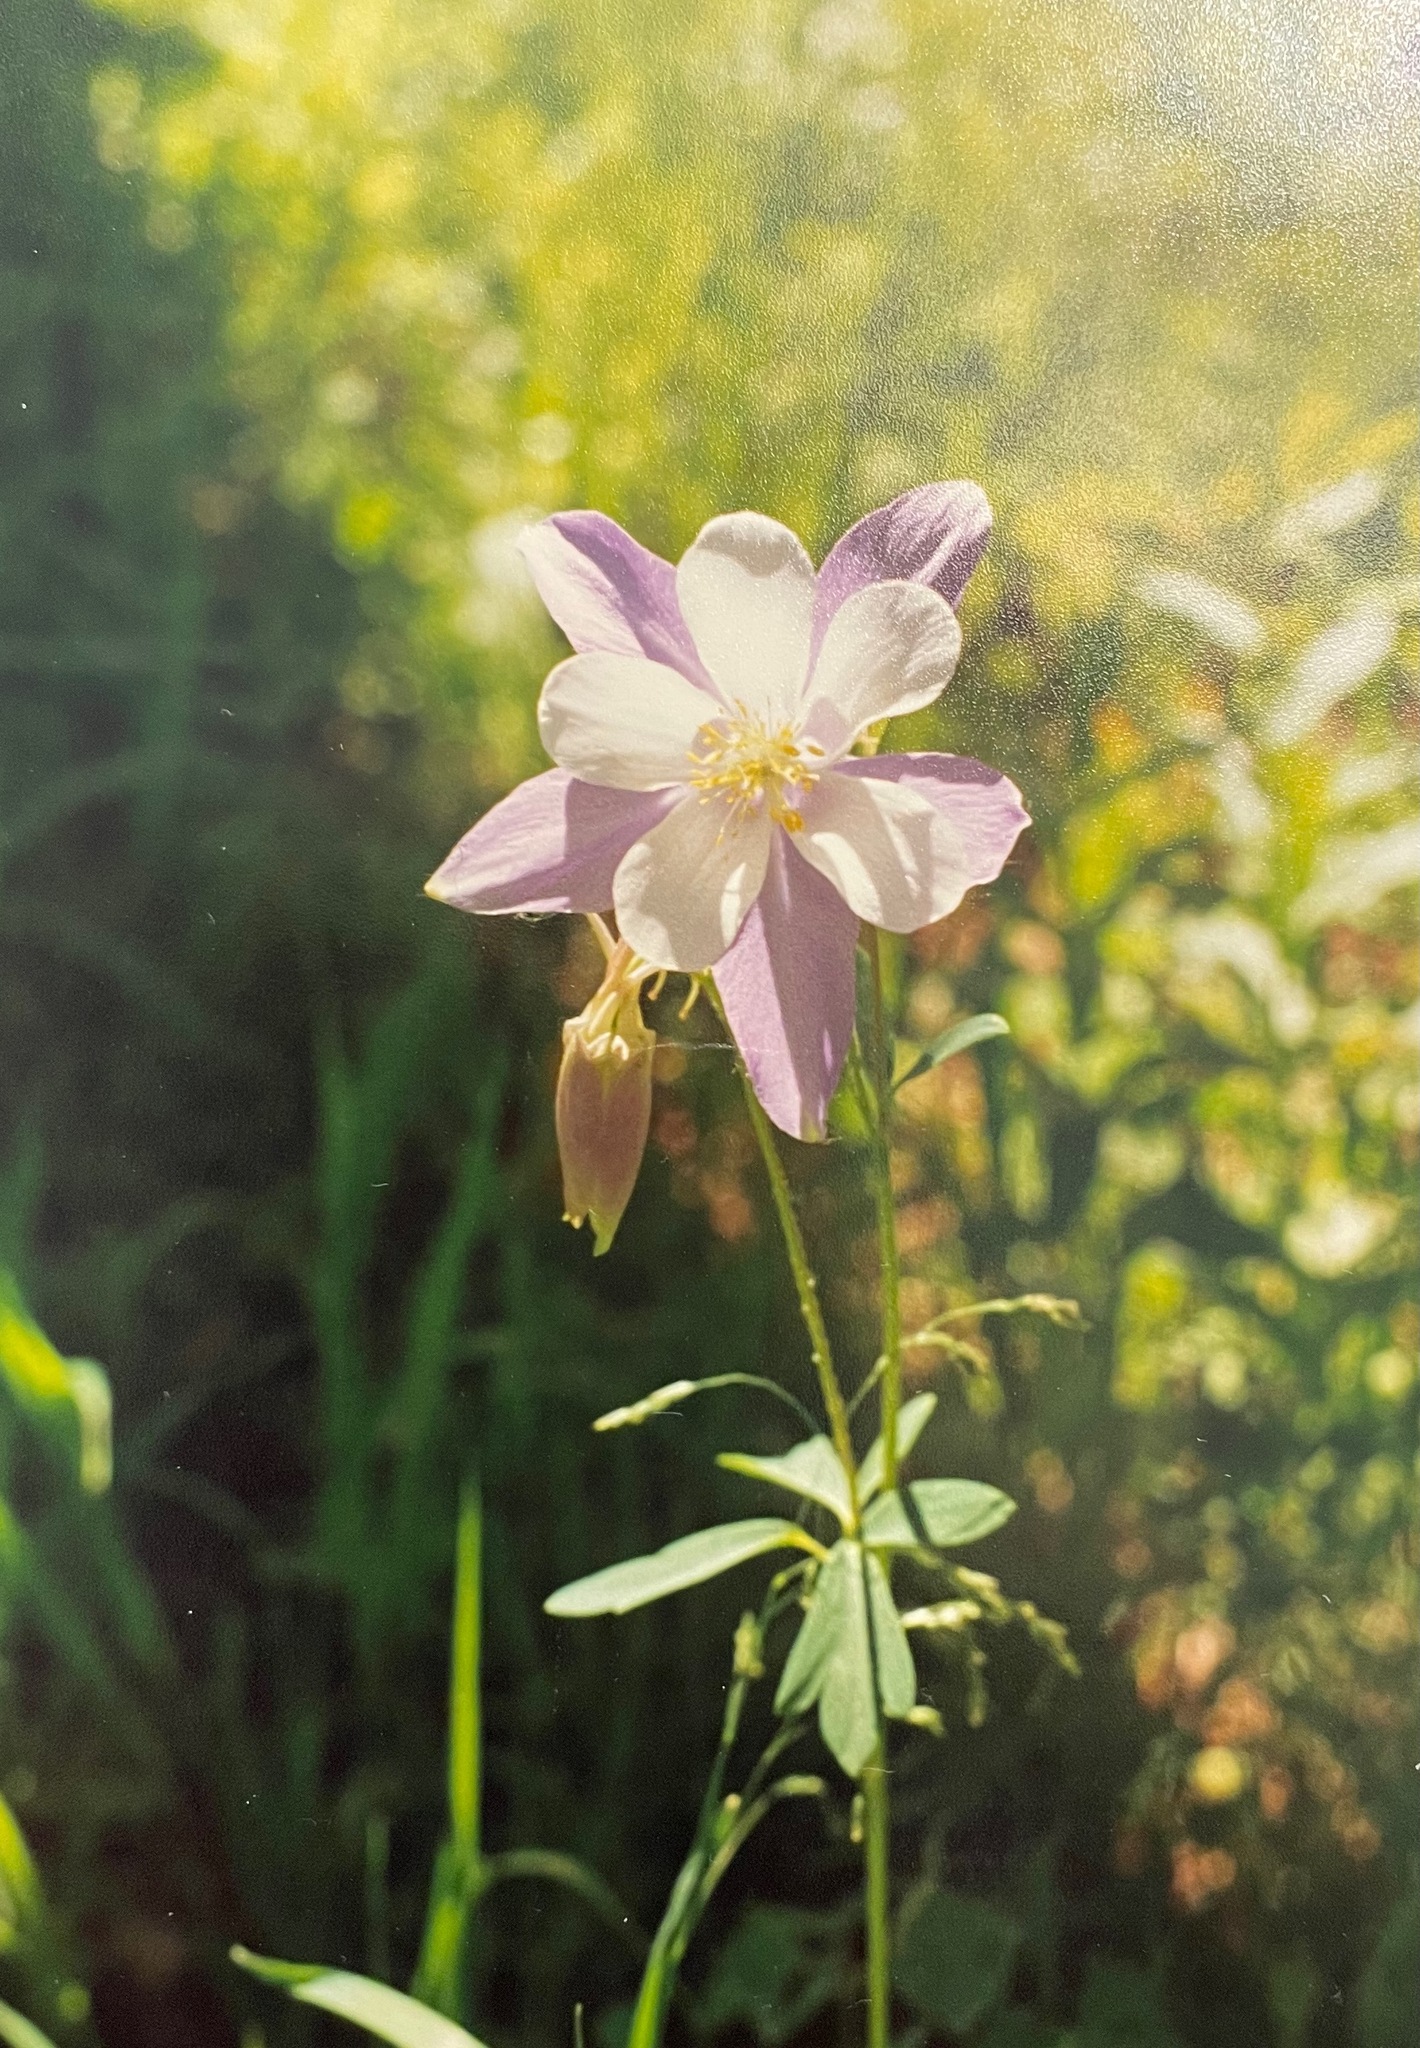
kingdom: Plantae
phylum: Tracheophyta
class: Magnoliopsida
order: Ranunculales
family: Ranunculaceae
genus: Aquilegia
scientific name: Aquilegia coerulea
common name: Rocky mountain columbine
